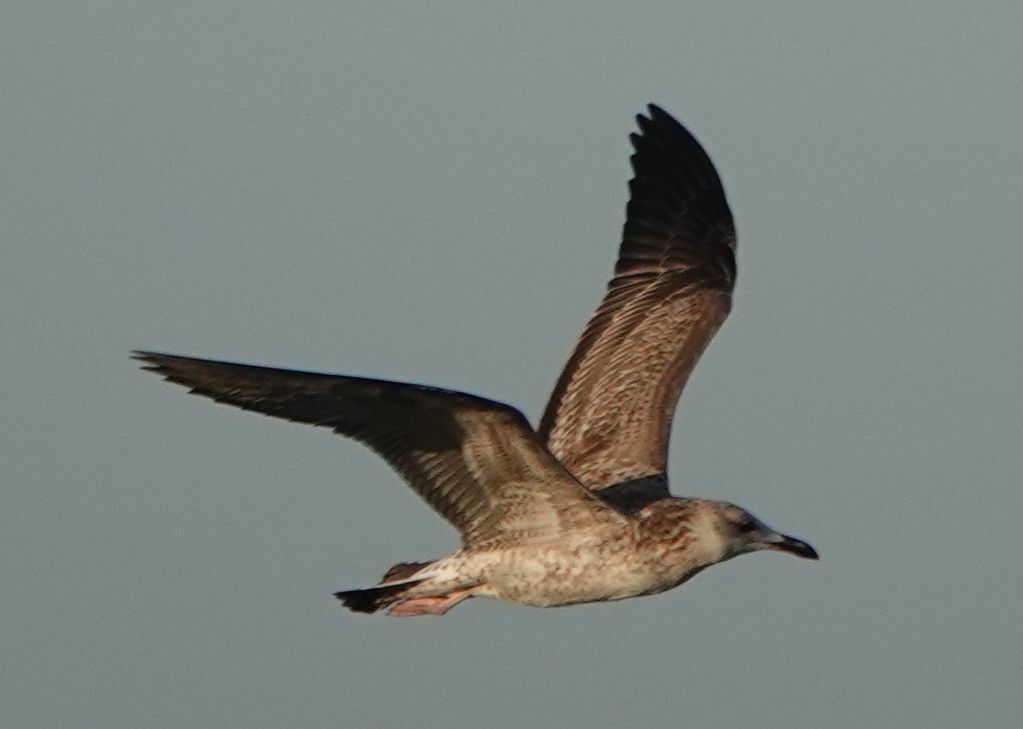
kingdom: Animalia
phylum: Chordata
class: Aves
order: Charadriiformes
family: Laridae
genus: Larus
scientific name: Larus cachinnans
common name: Caspian gull
